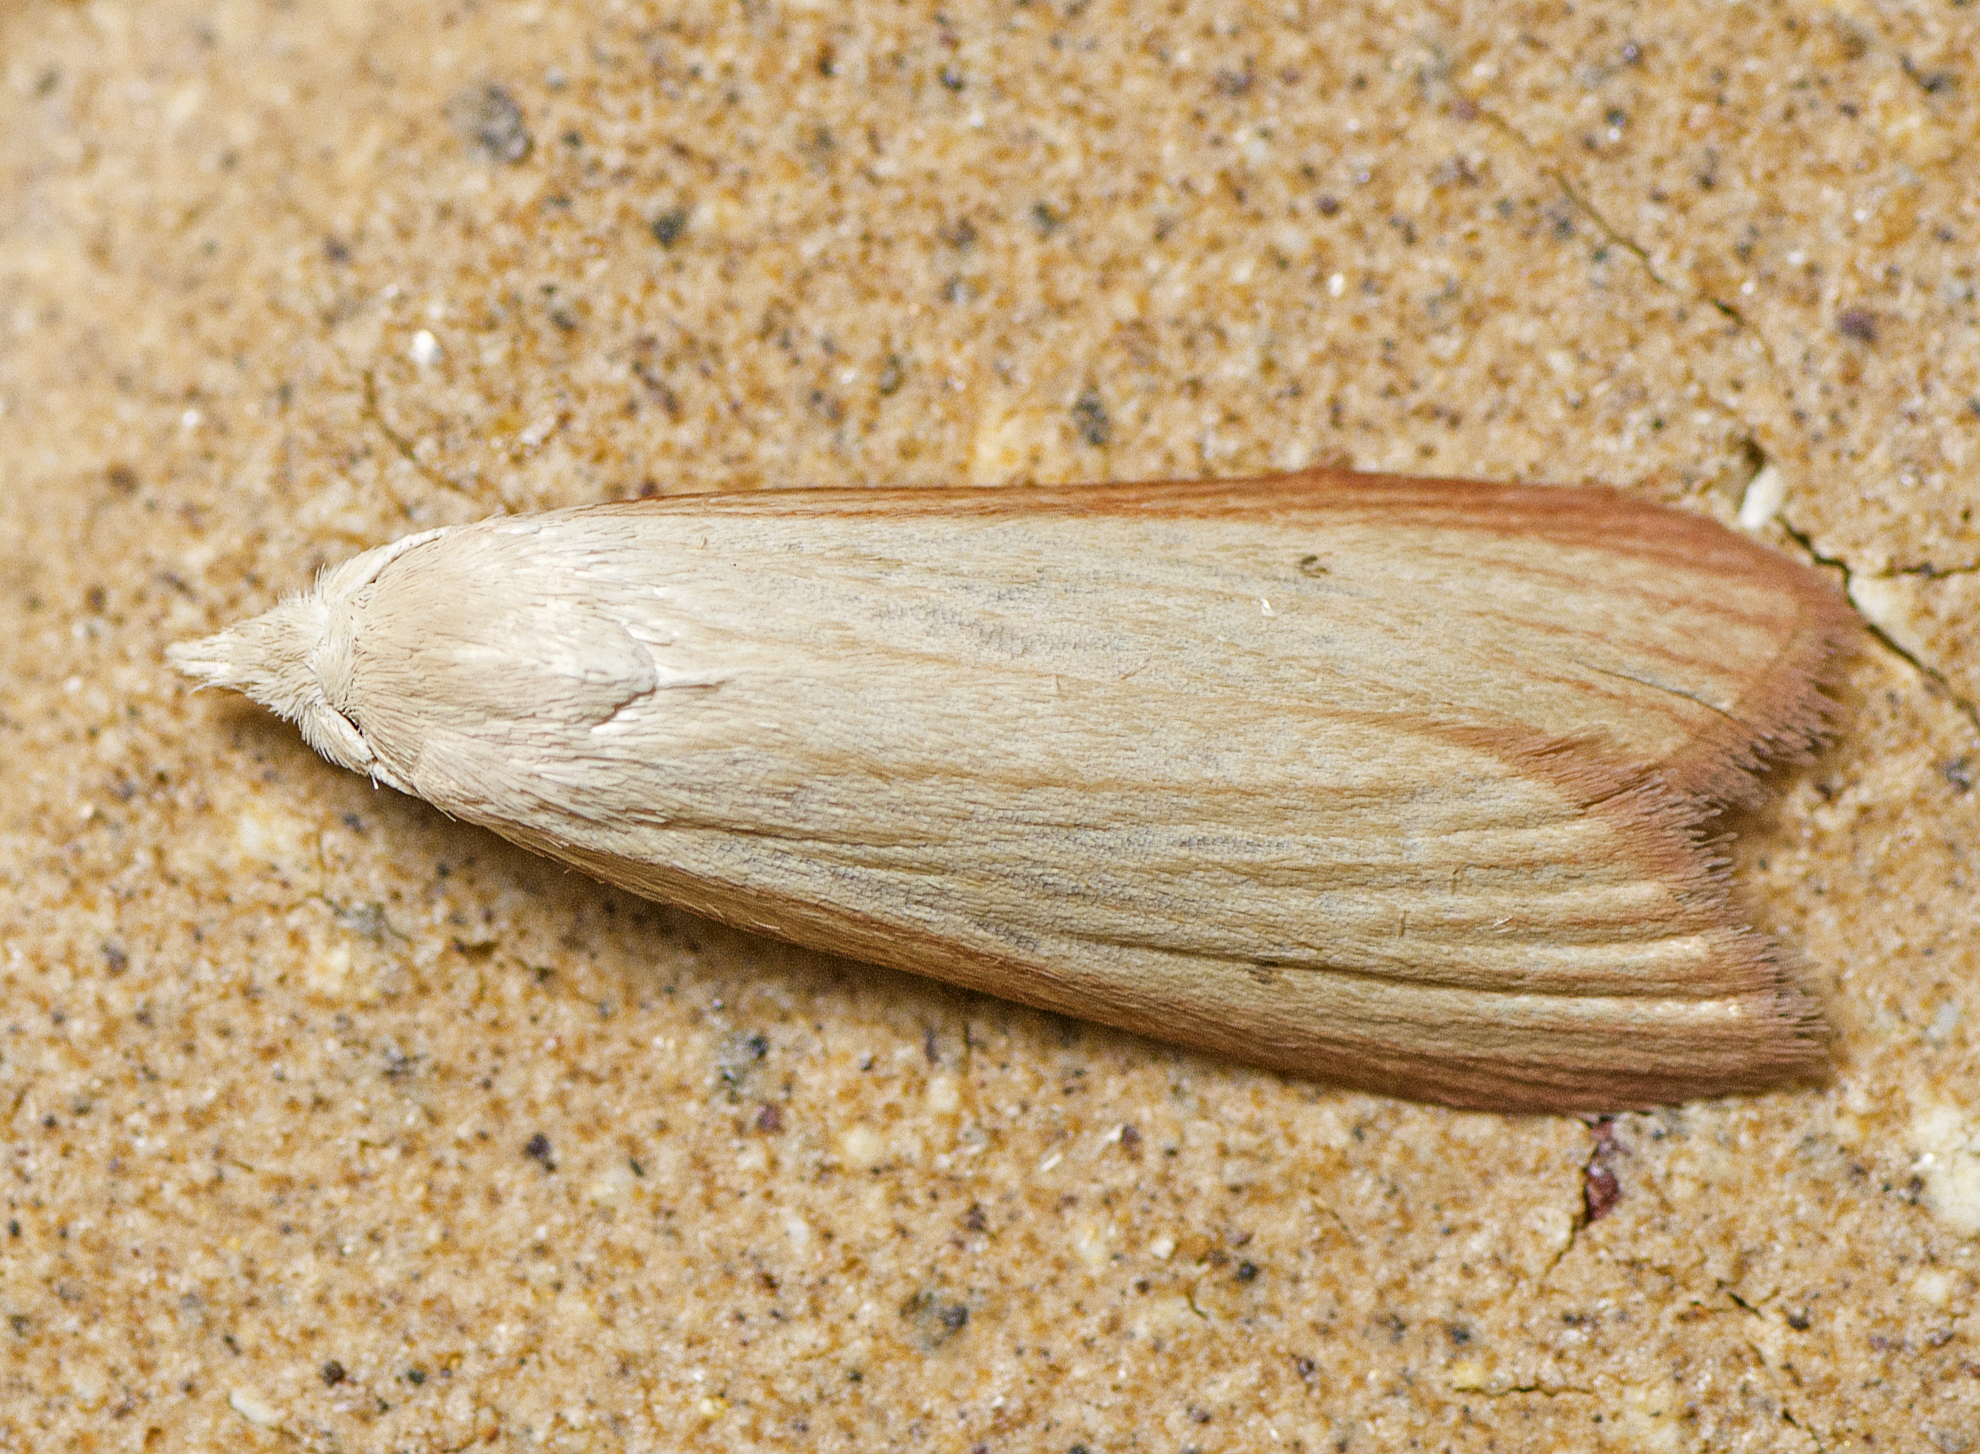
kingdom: Animalia
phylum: Arthropoda
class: Insecta
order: Lepidoptera
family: Pyralidae
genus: Mampava
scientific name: Mampava rhodoneura
